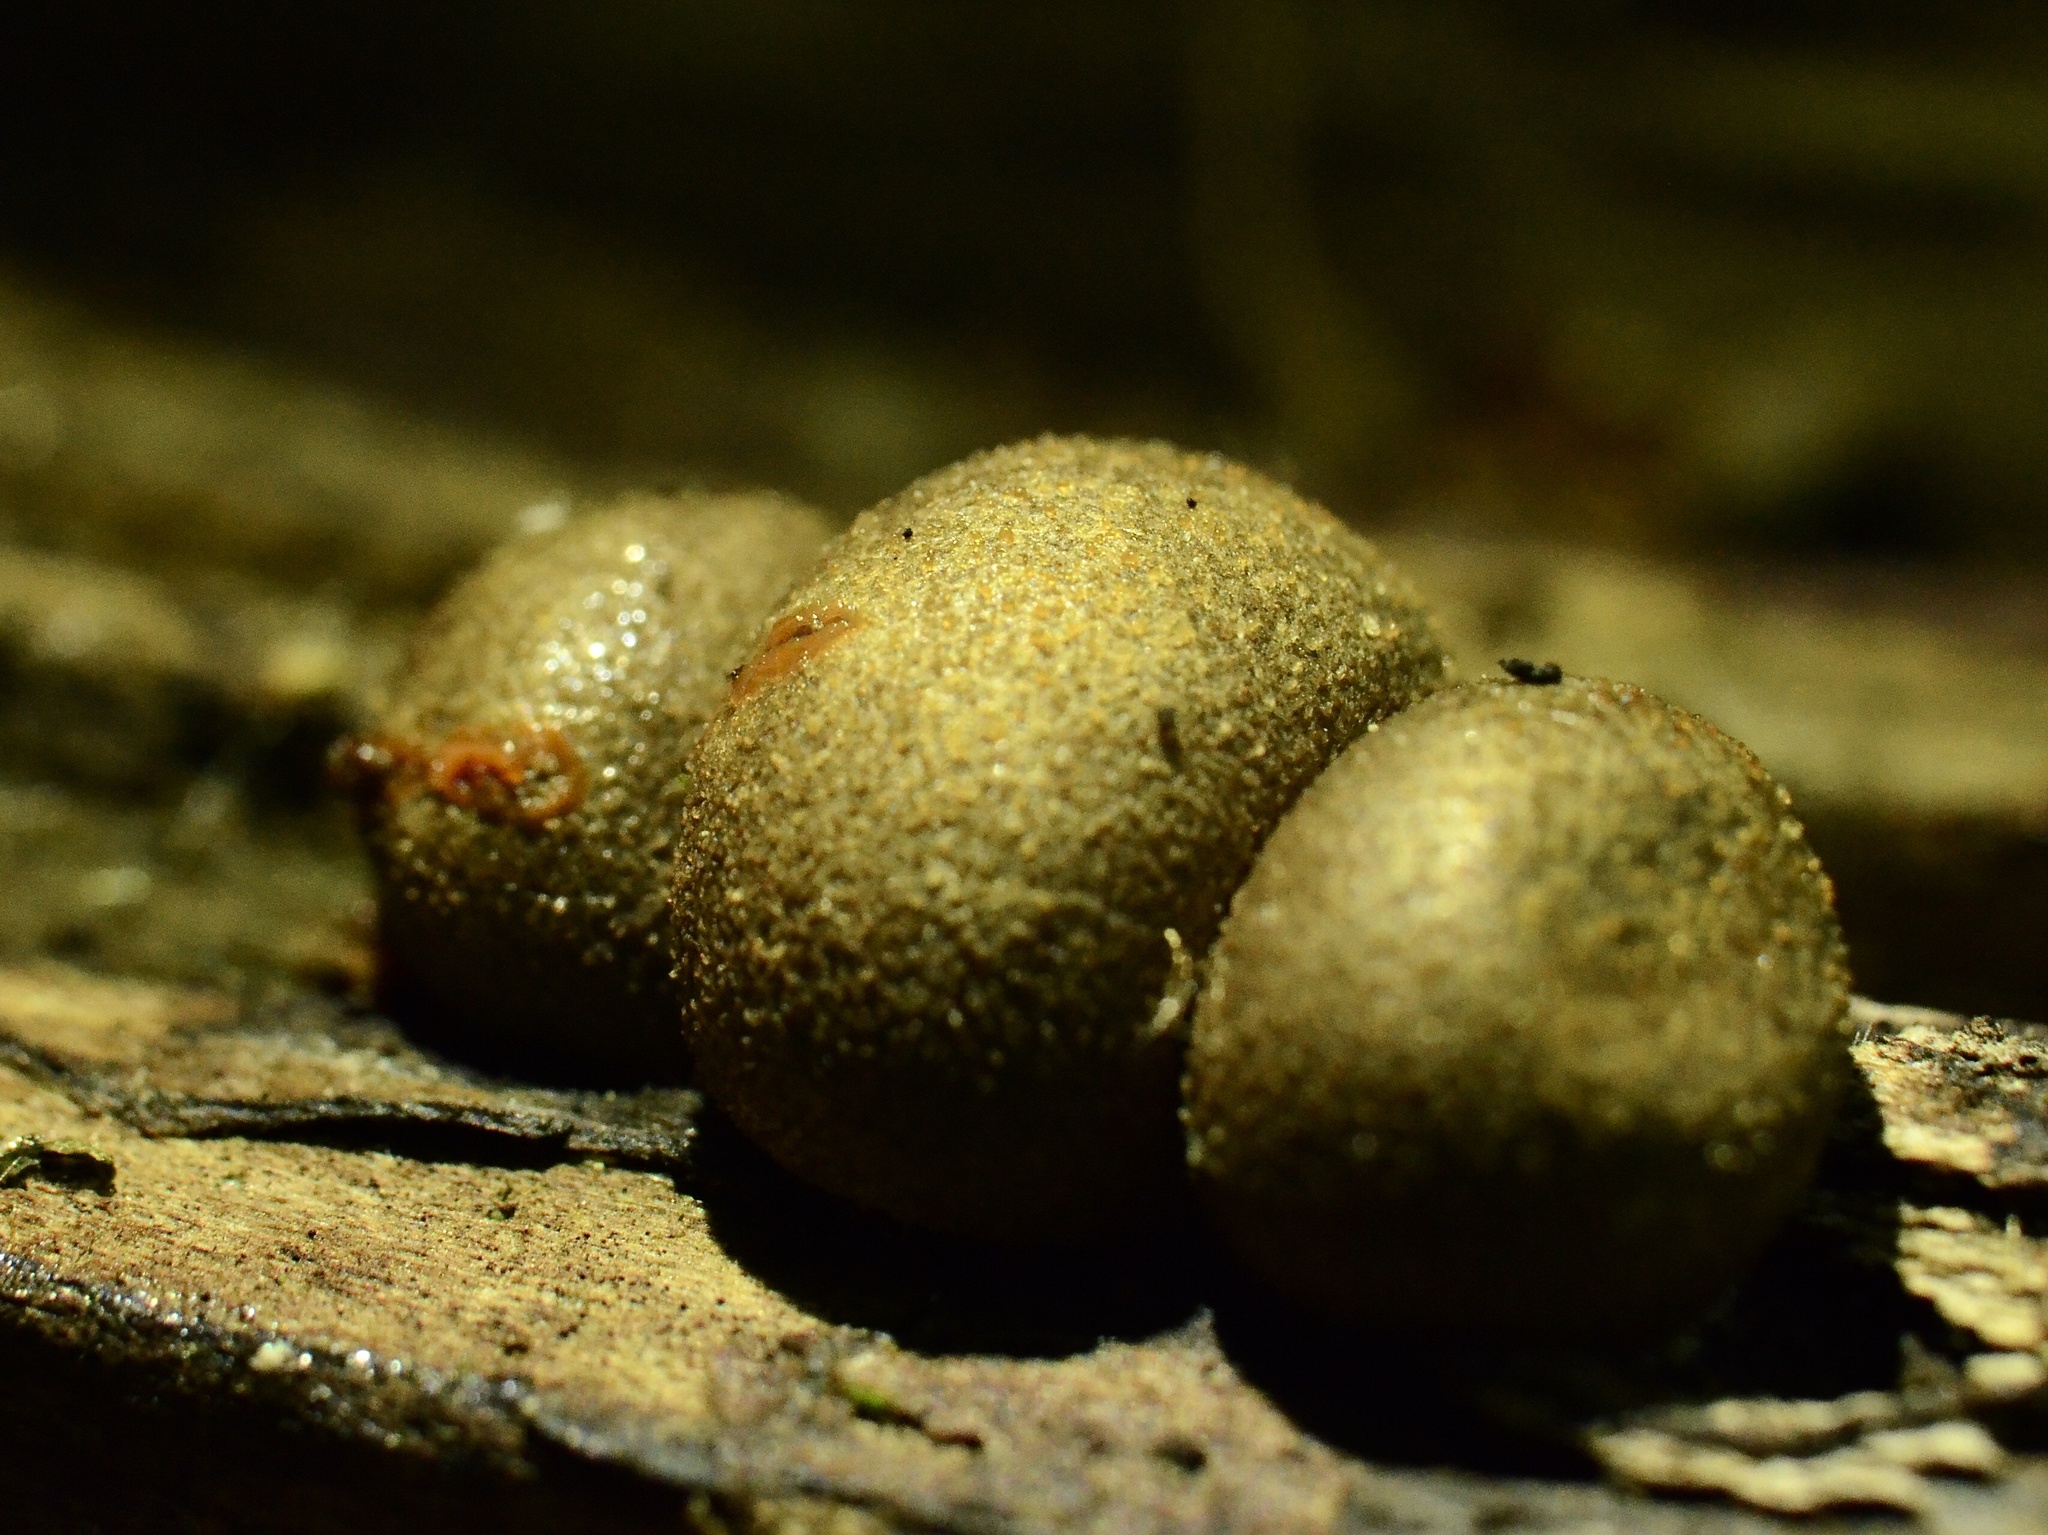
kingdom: Protozoa
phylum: Mycetozoa
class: Myxomycetes
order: Cribrariales
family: Tubiferaceae
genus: Lycogala
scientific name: Lycogala epidendrum
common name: Wolf's milk
